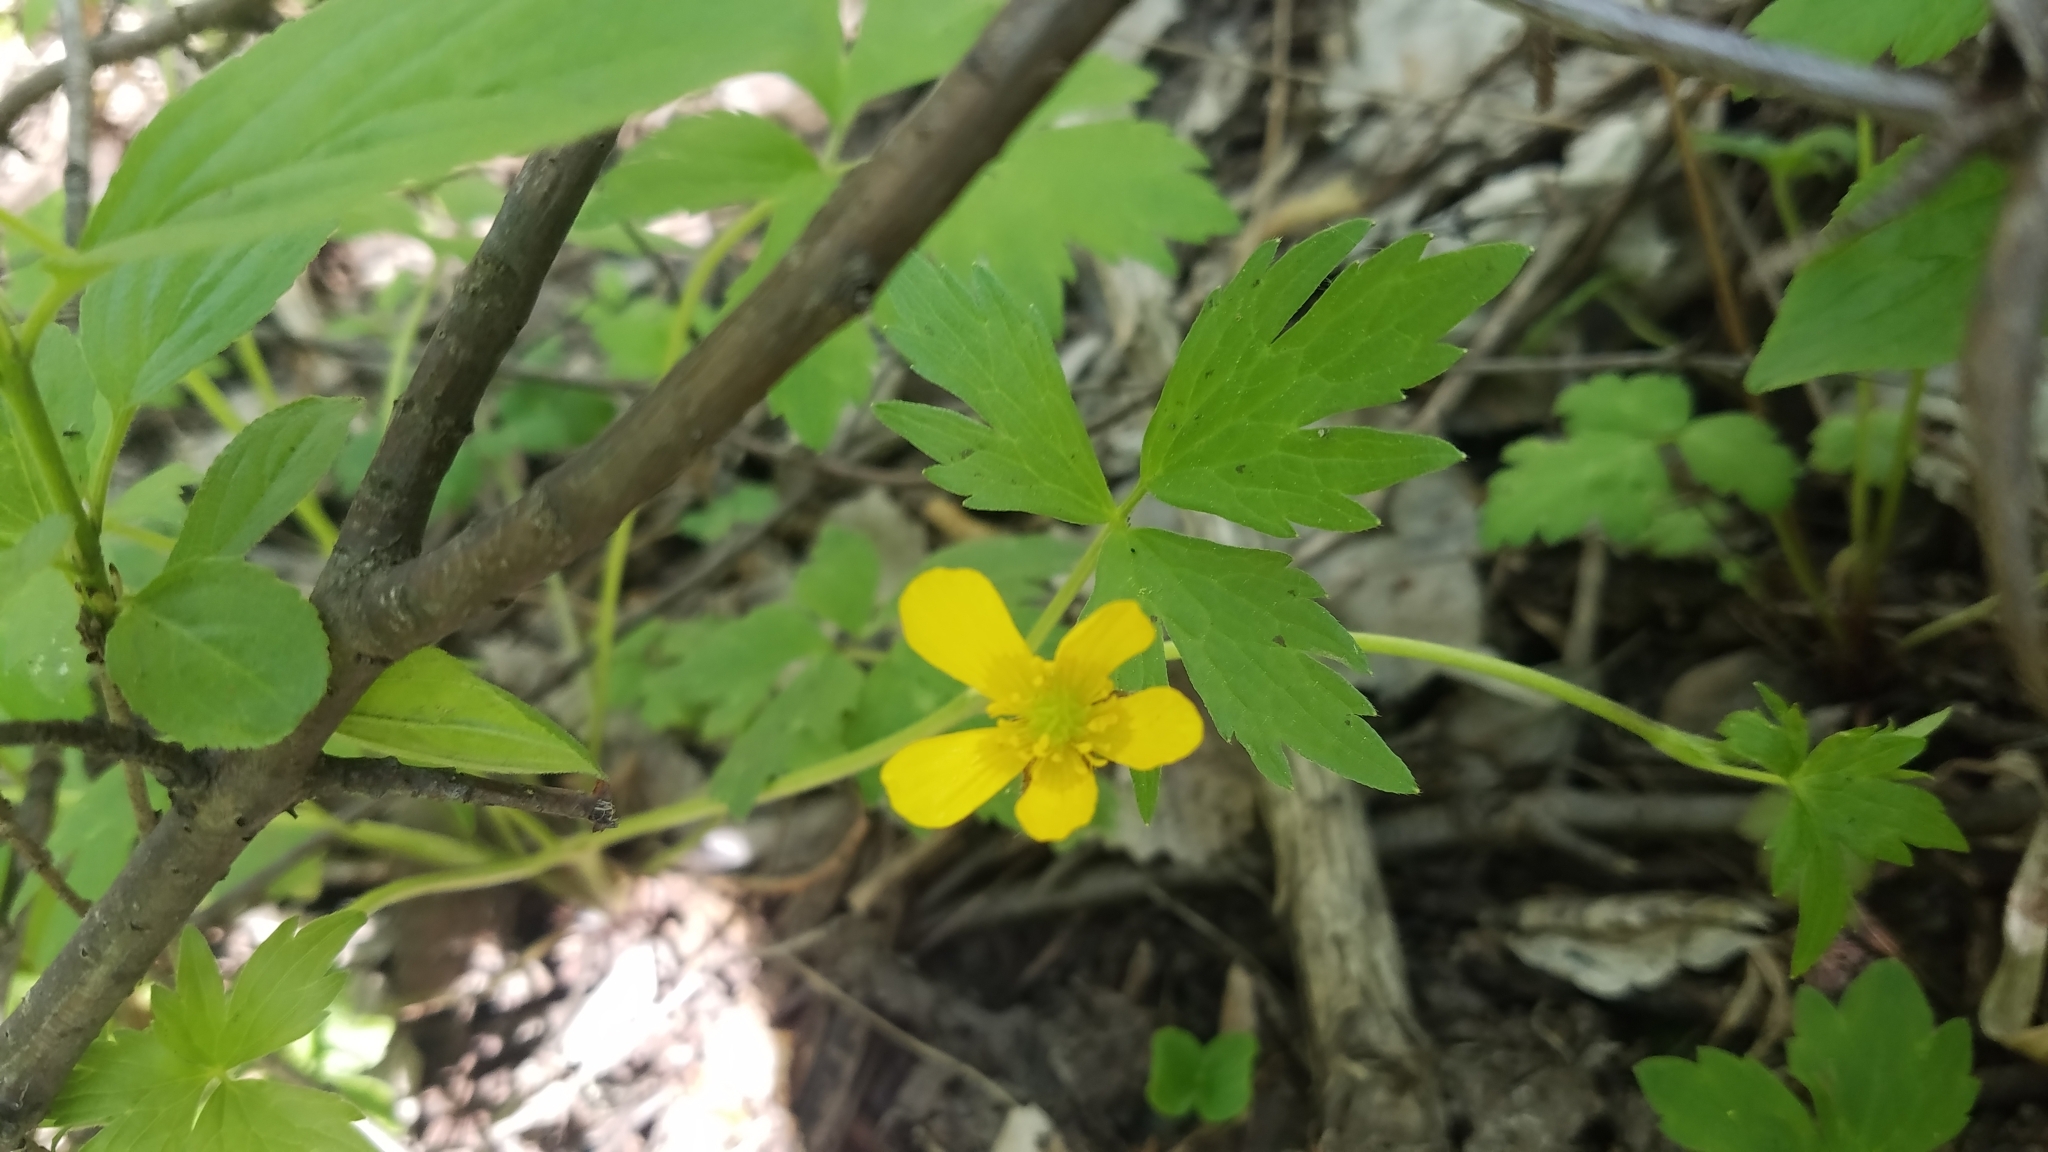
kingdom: Plantae
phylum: Tracheophyta
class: Magnoliopsida
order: Ranunculales
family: Ranunculaceae
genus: Ranunculus
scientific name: Ranunculus hispidus
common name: Bristly buttercup
